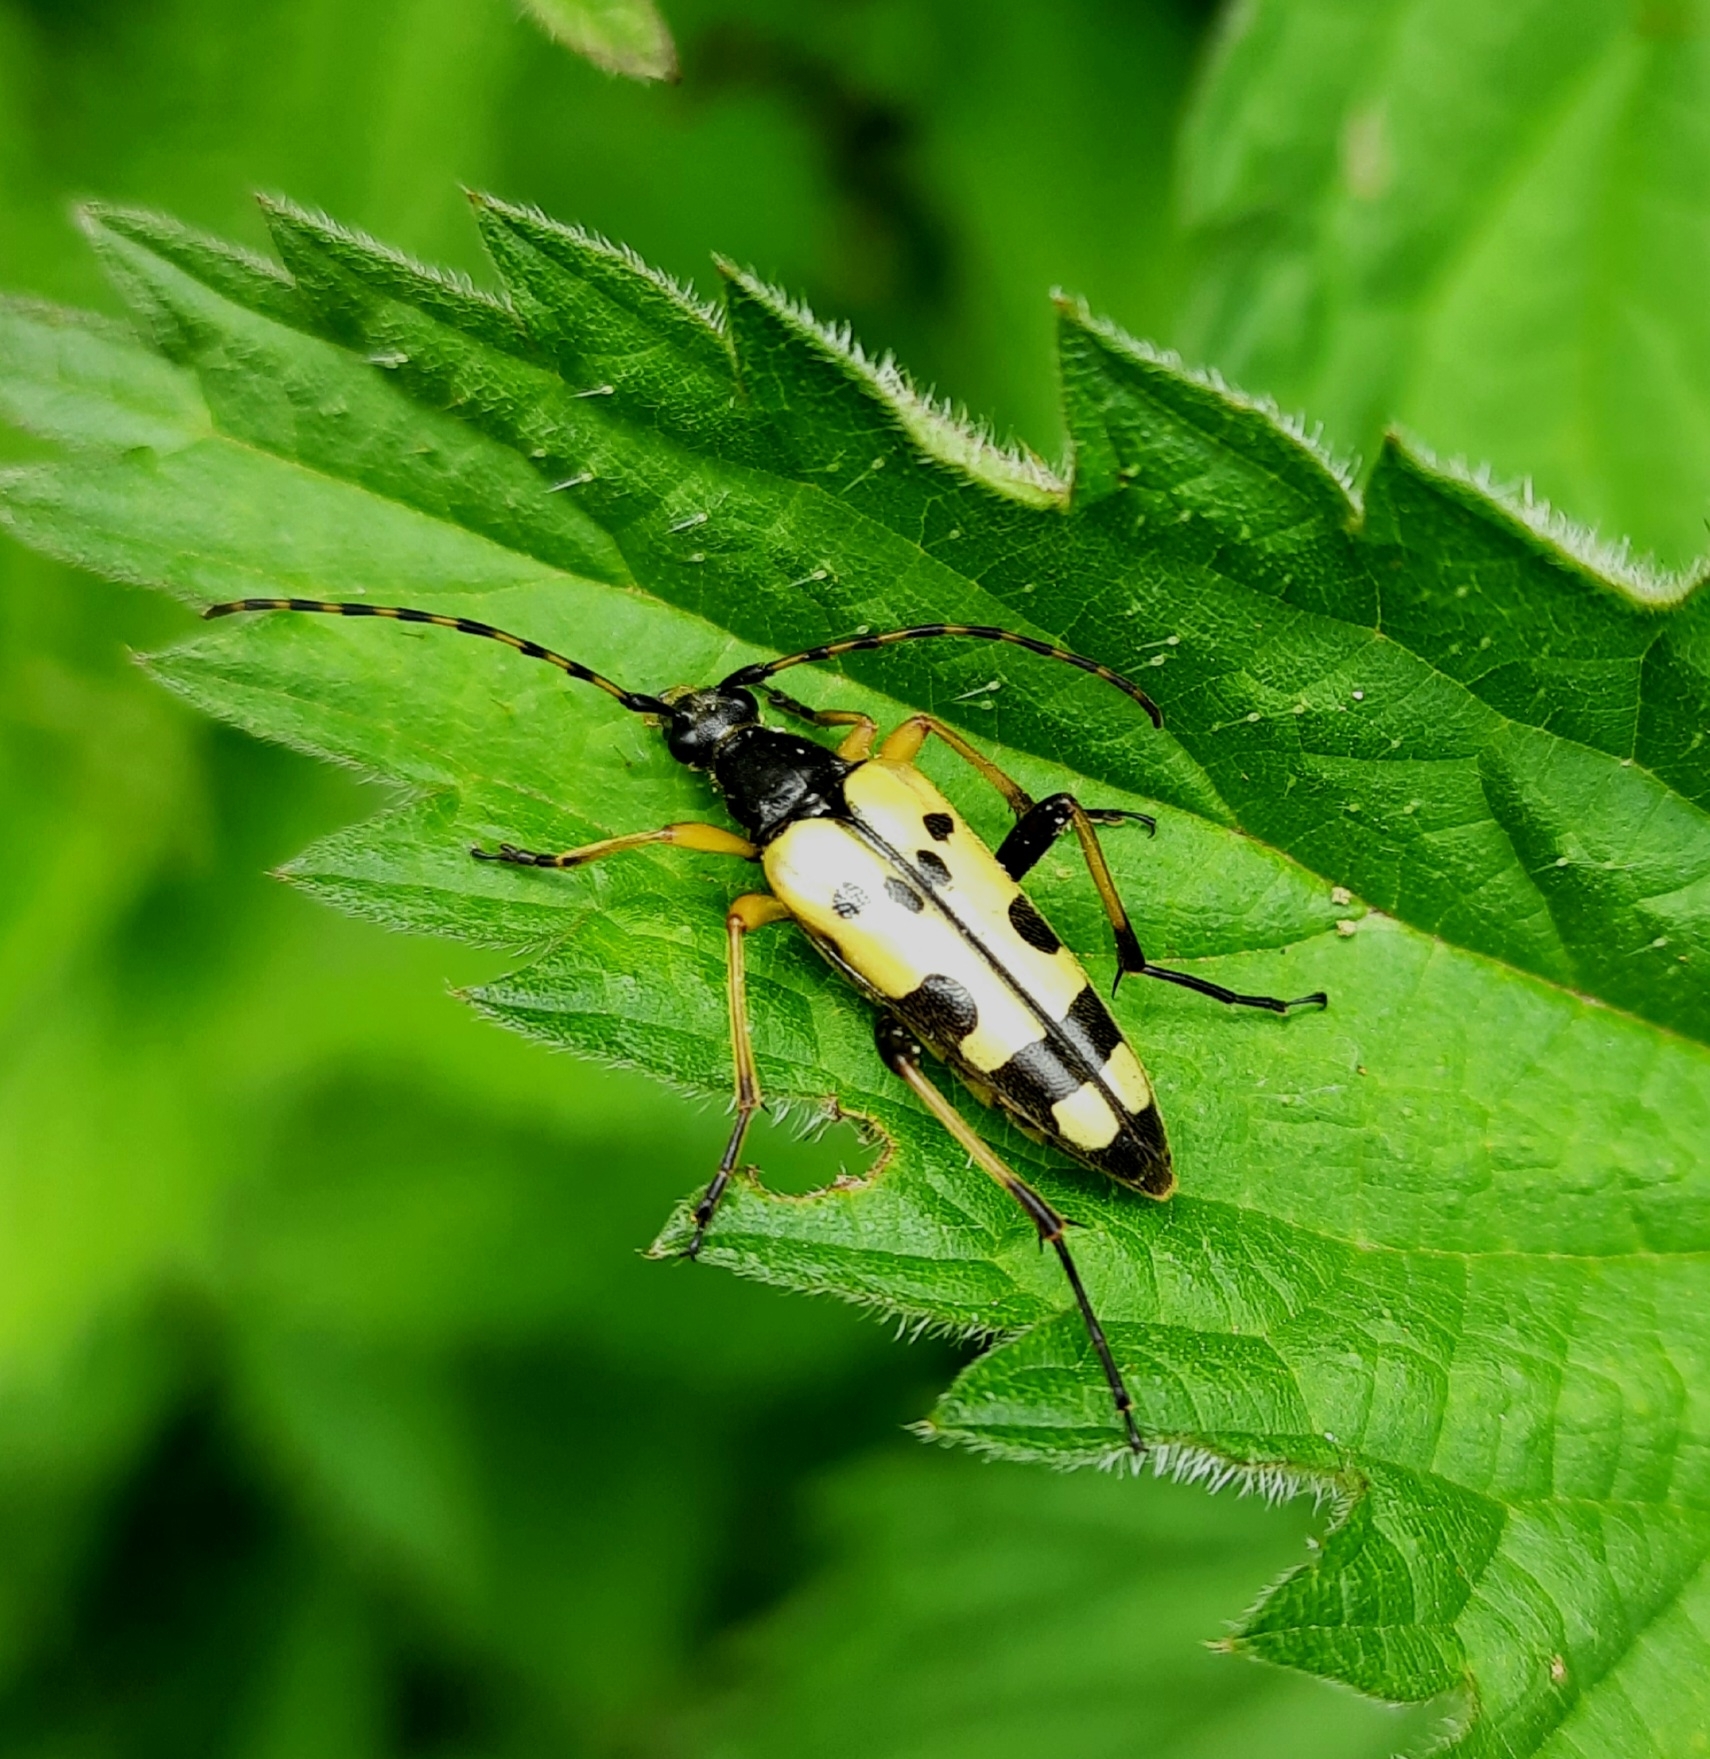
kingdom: Animalia
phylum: Arthropoda
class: Insecta
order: Coleoptera
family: Cerambycidae
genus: Rutpela
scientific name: Rutpela maculata
